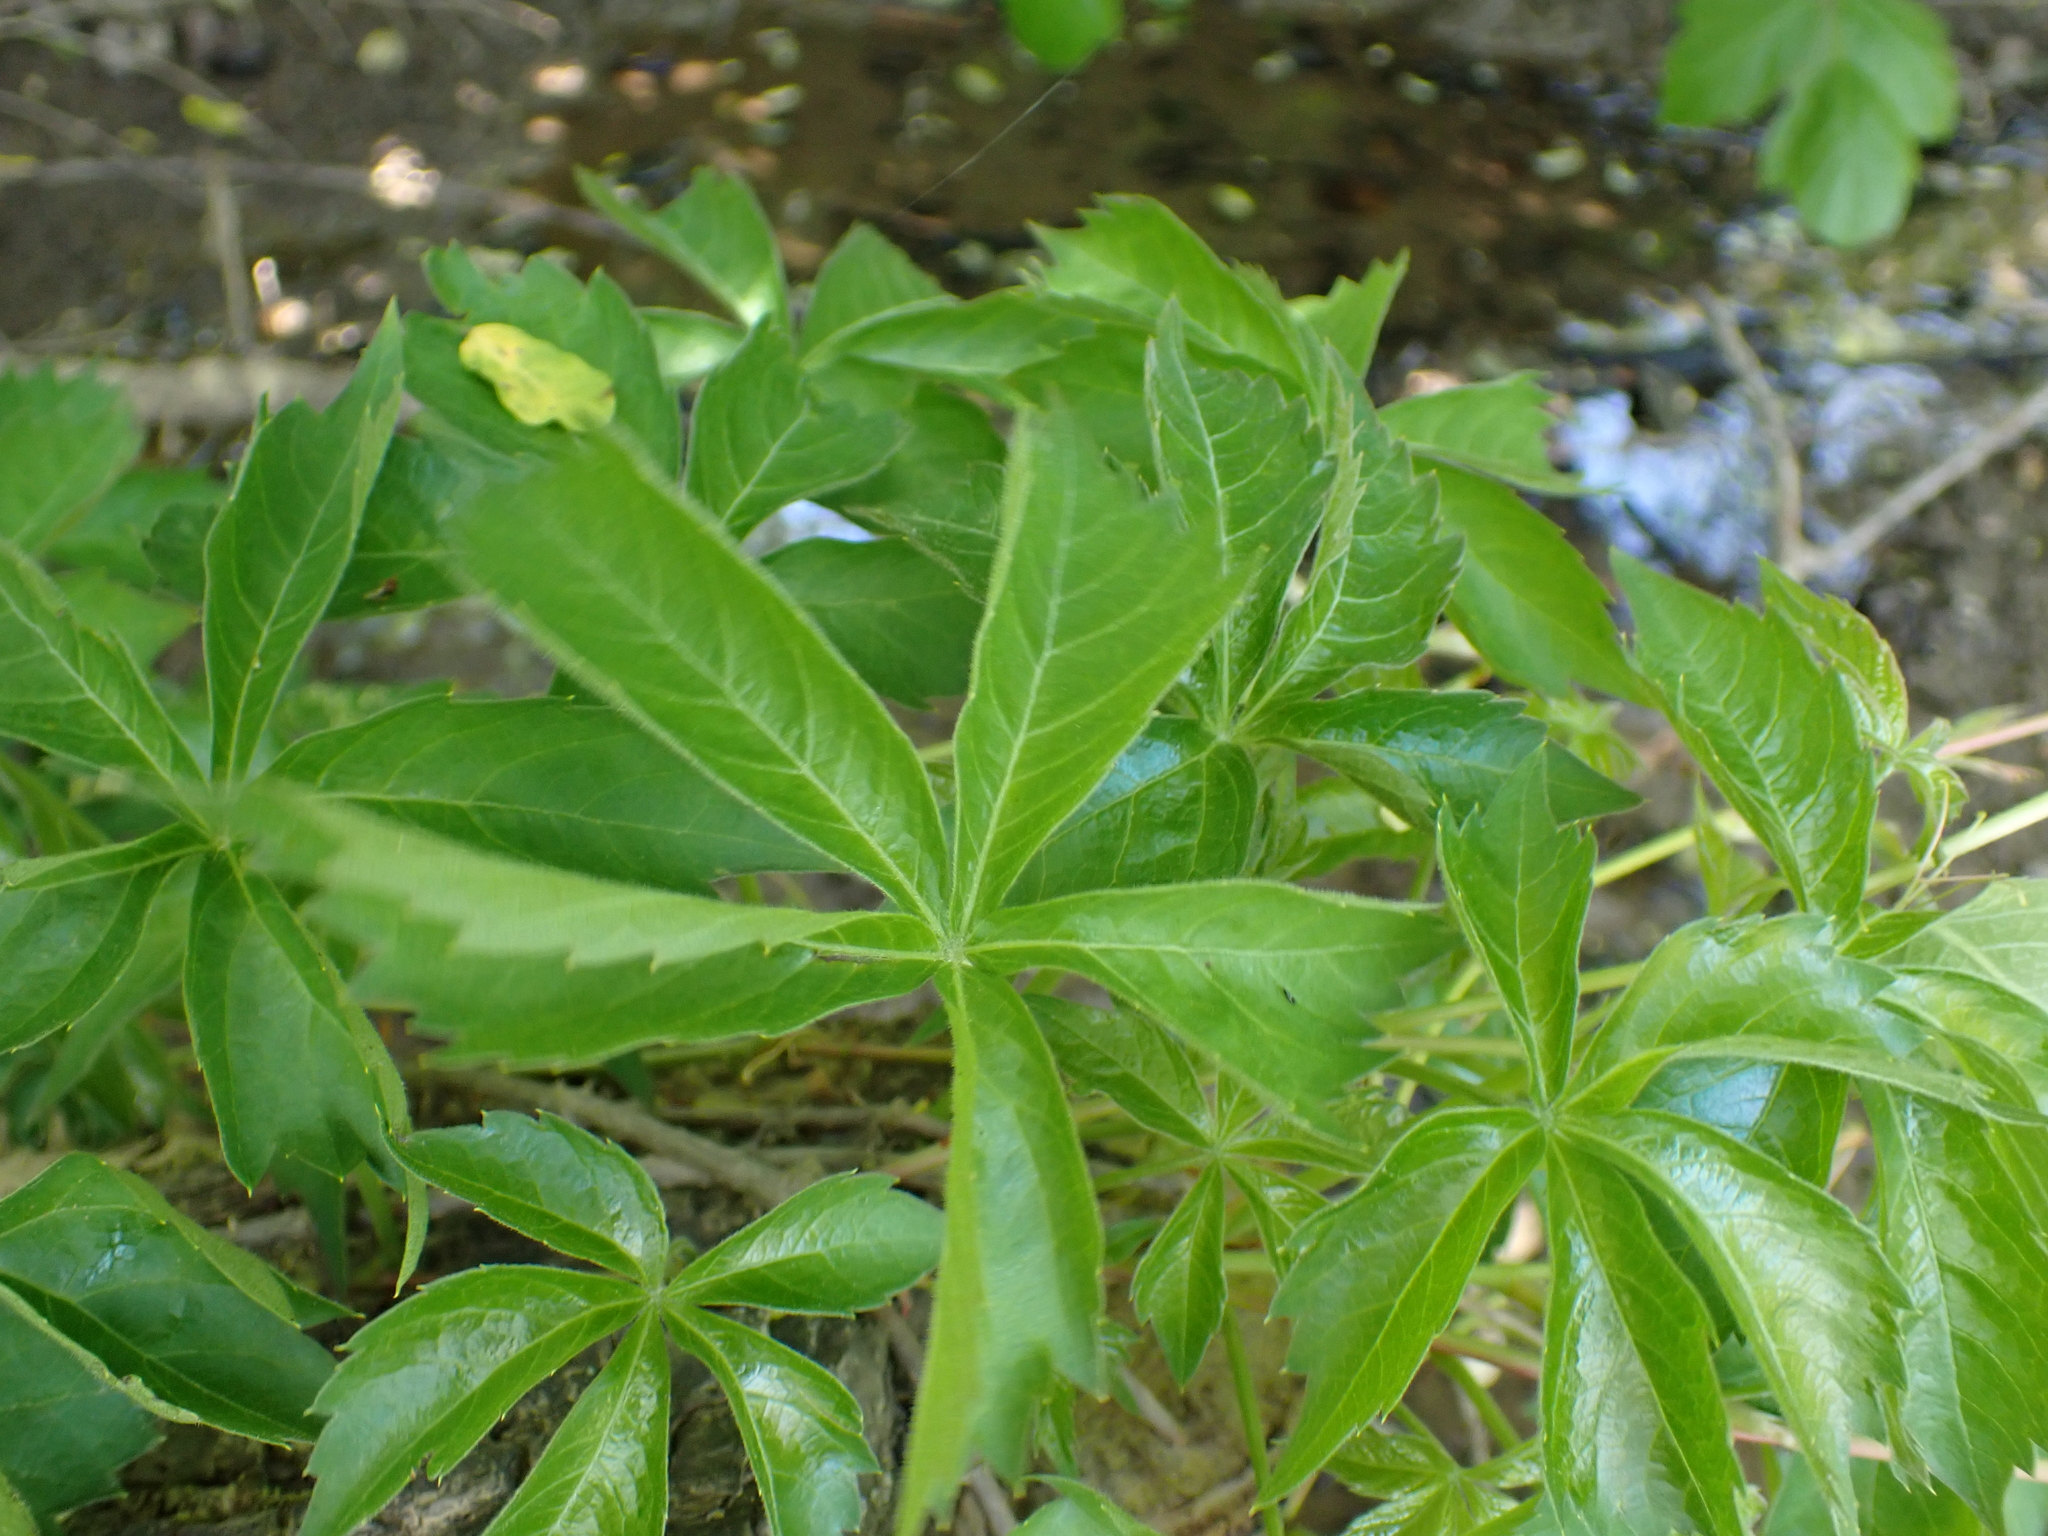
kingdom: Plantae
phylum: Tracheophyta
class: Magnoliopsida
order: Vitales
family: Vitaceae
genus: Parthenocissus
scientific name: Parthenocissus quinquefolia
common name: Virginia-creeper
